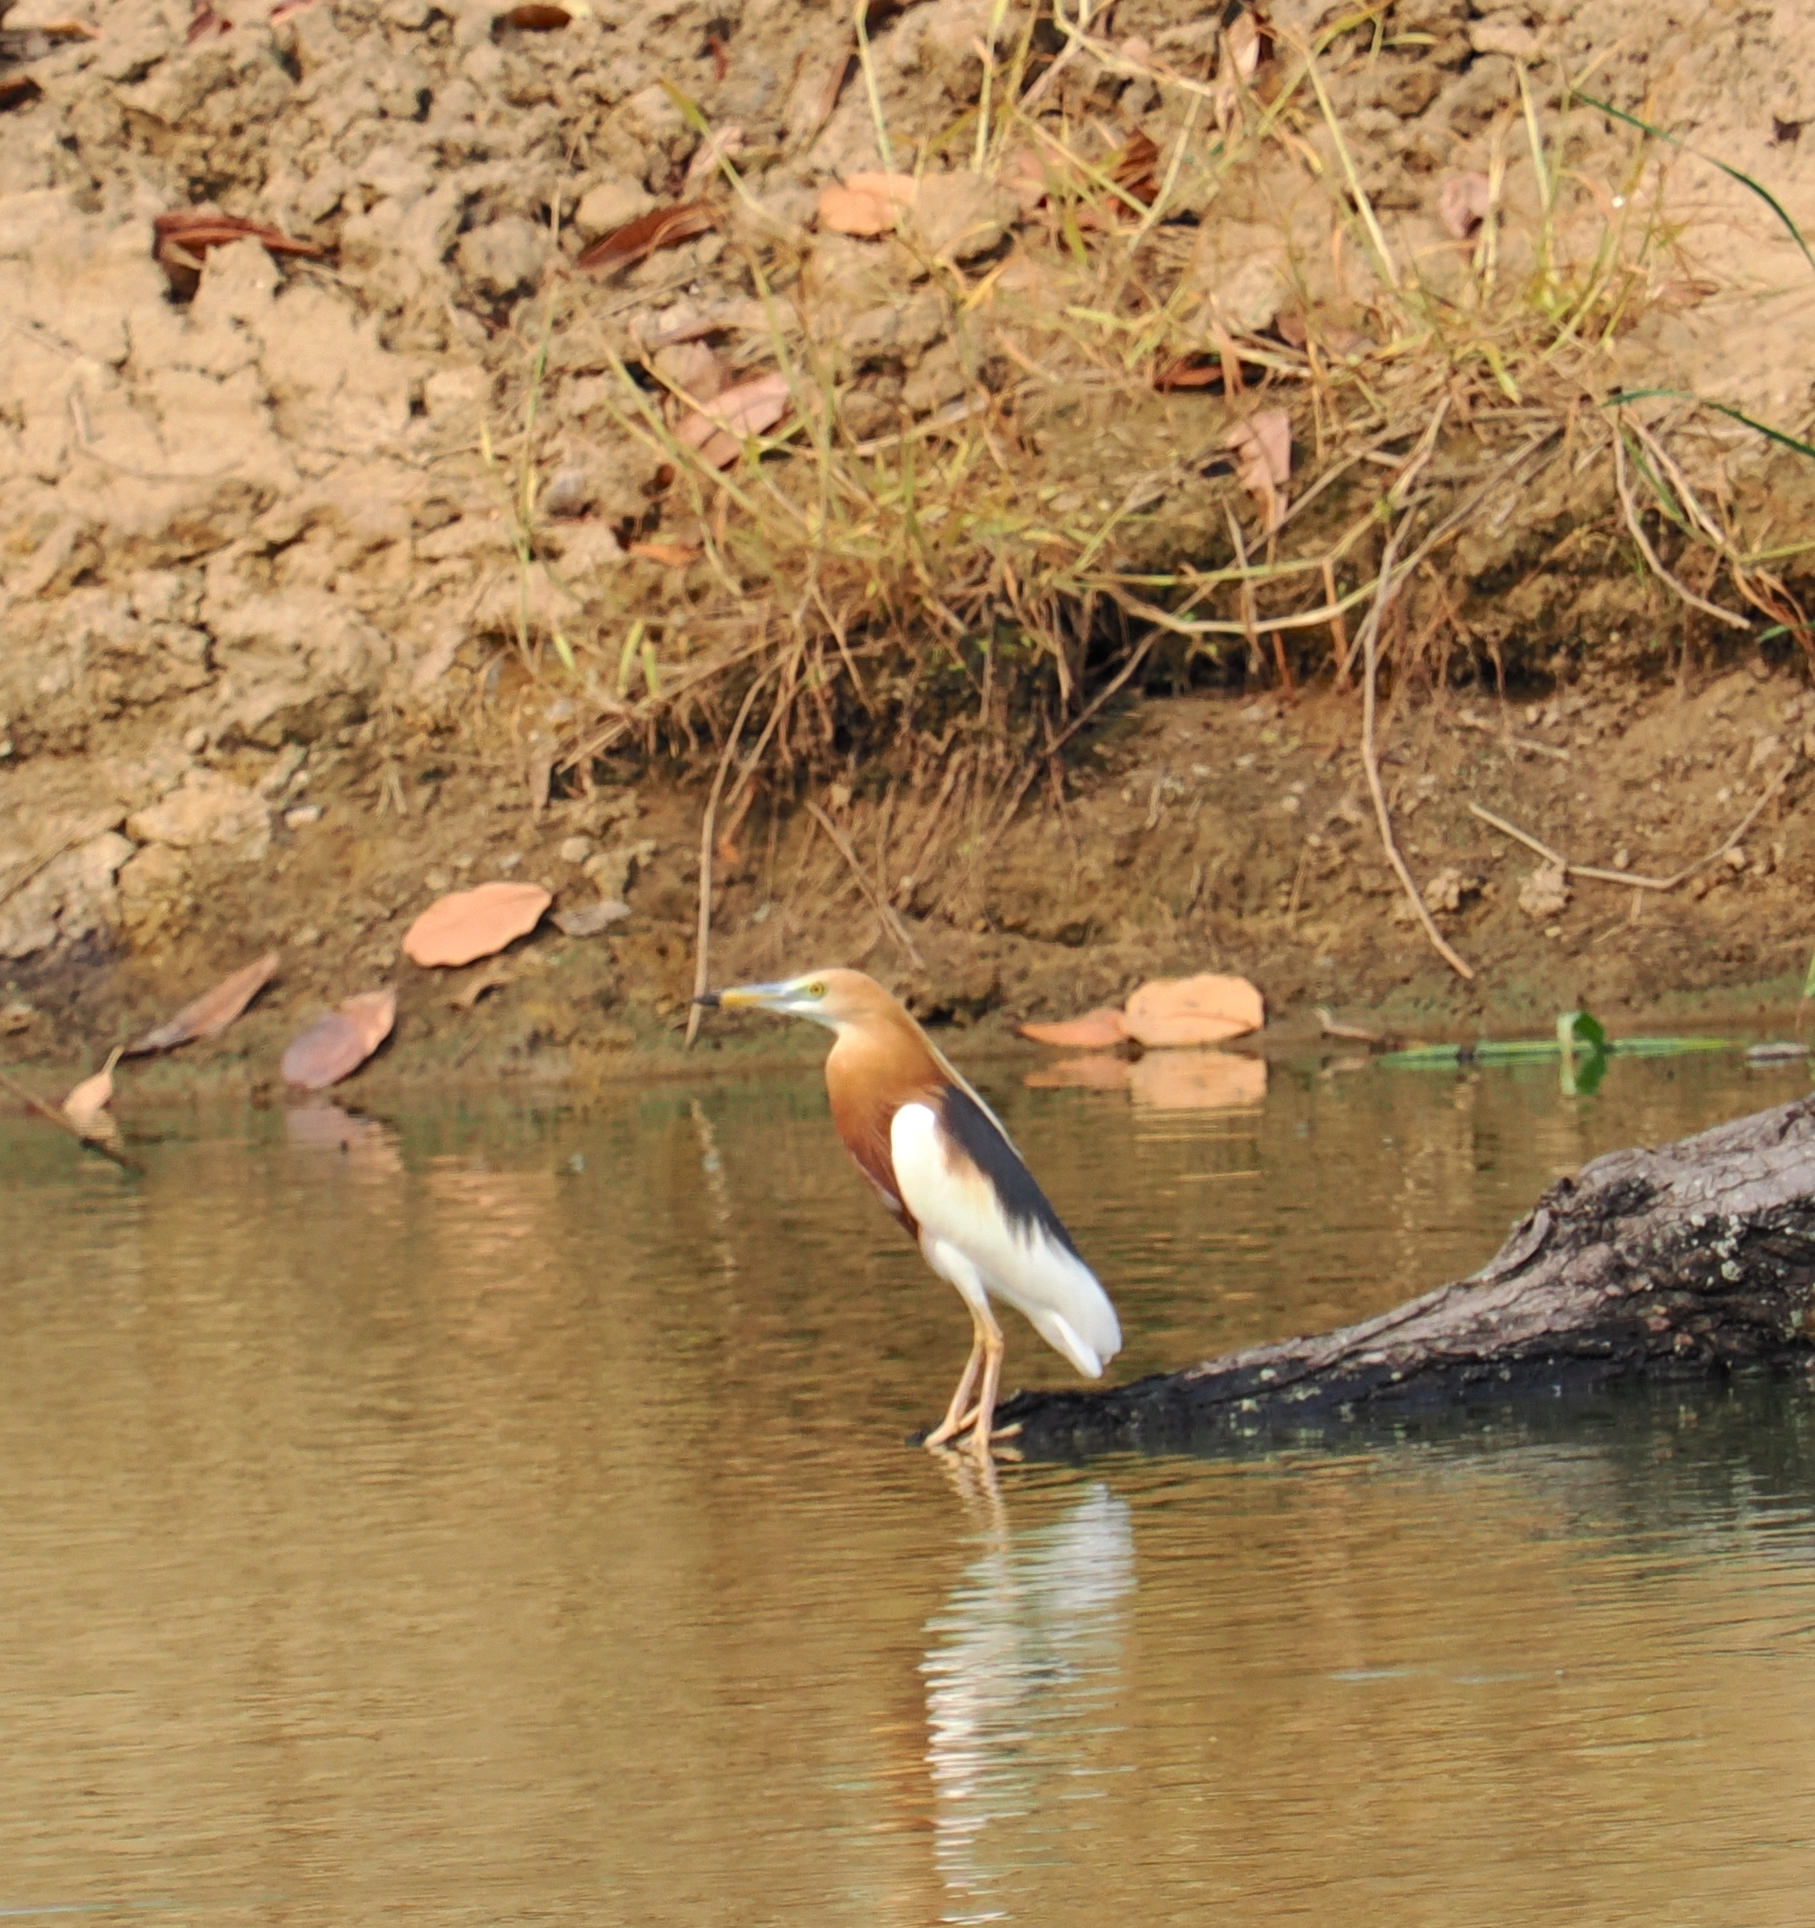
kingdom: Animalia
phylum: Chordata
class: Aves
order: Pelecaniformes
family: Ardeidae
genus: Ardeola
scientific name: Ardeola speciosa
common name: Javan pond heron
